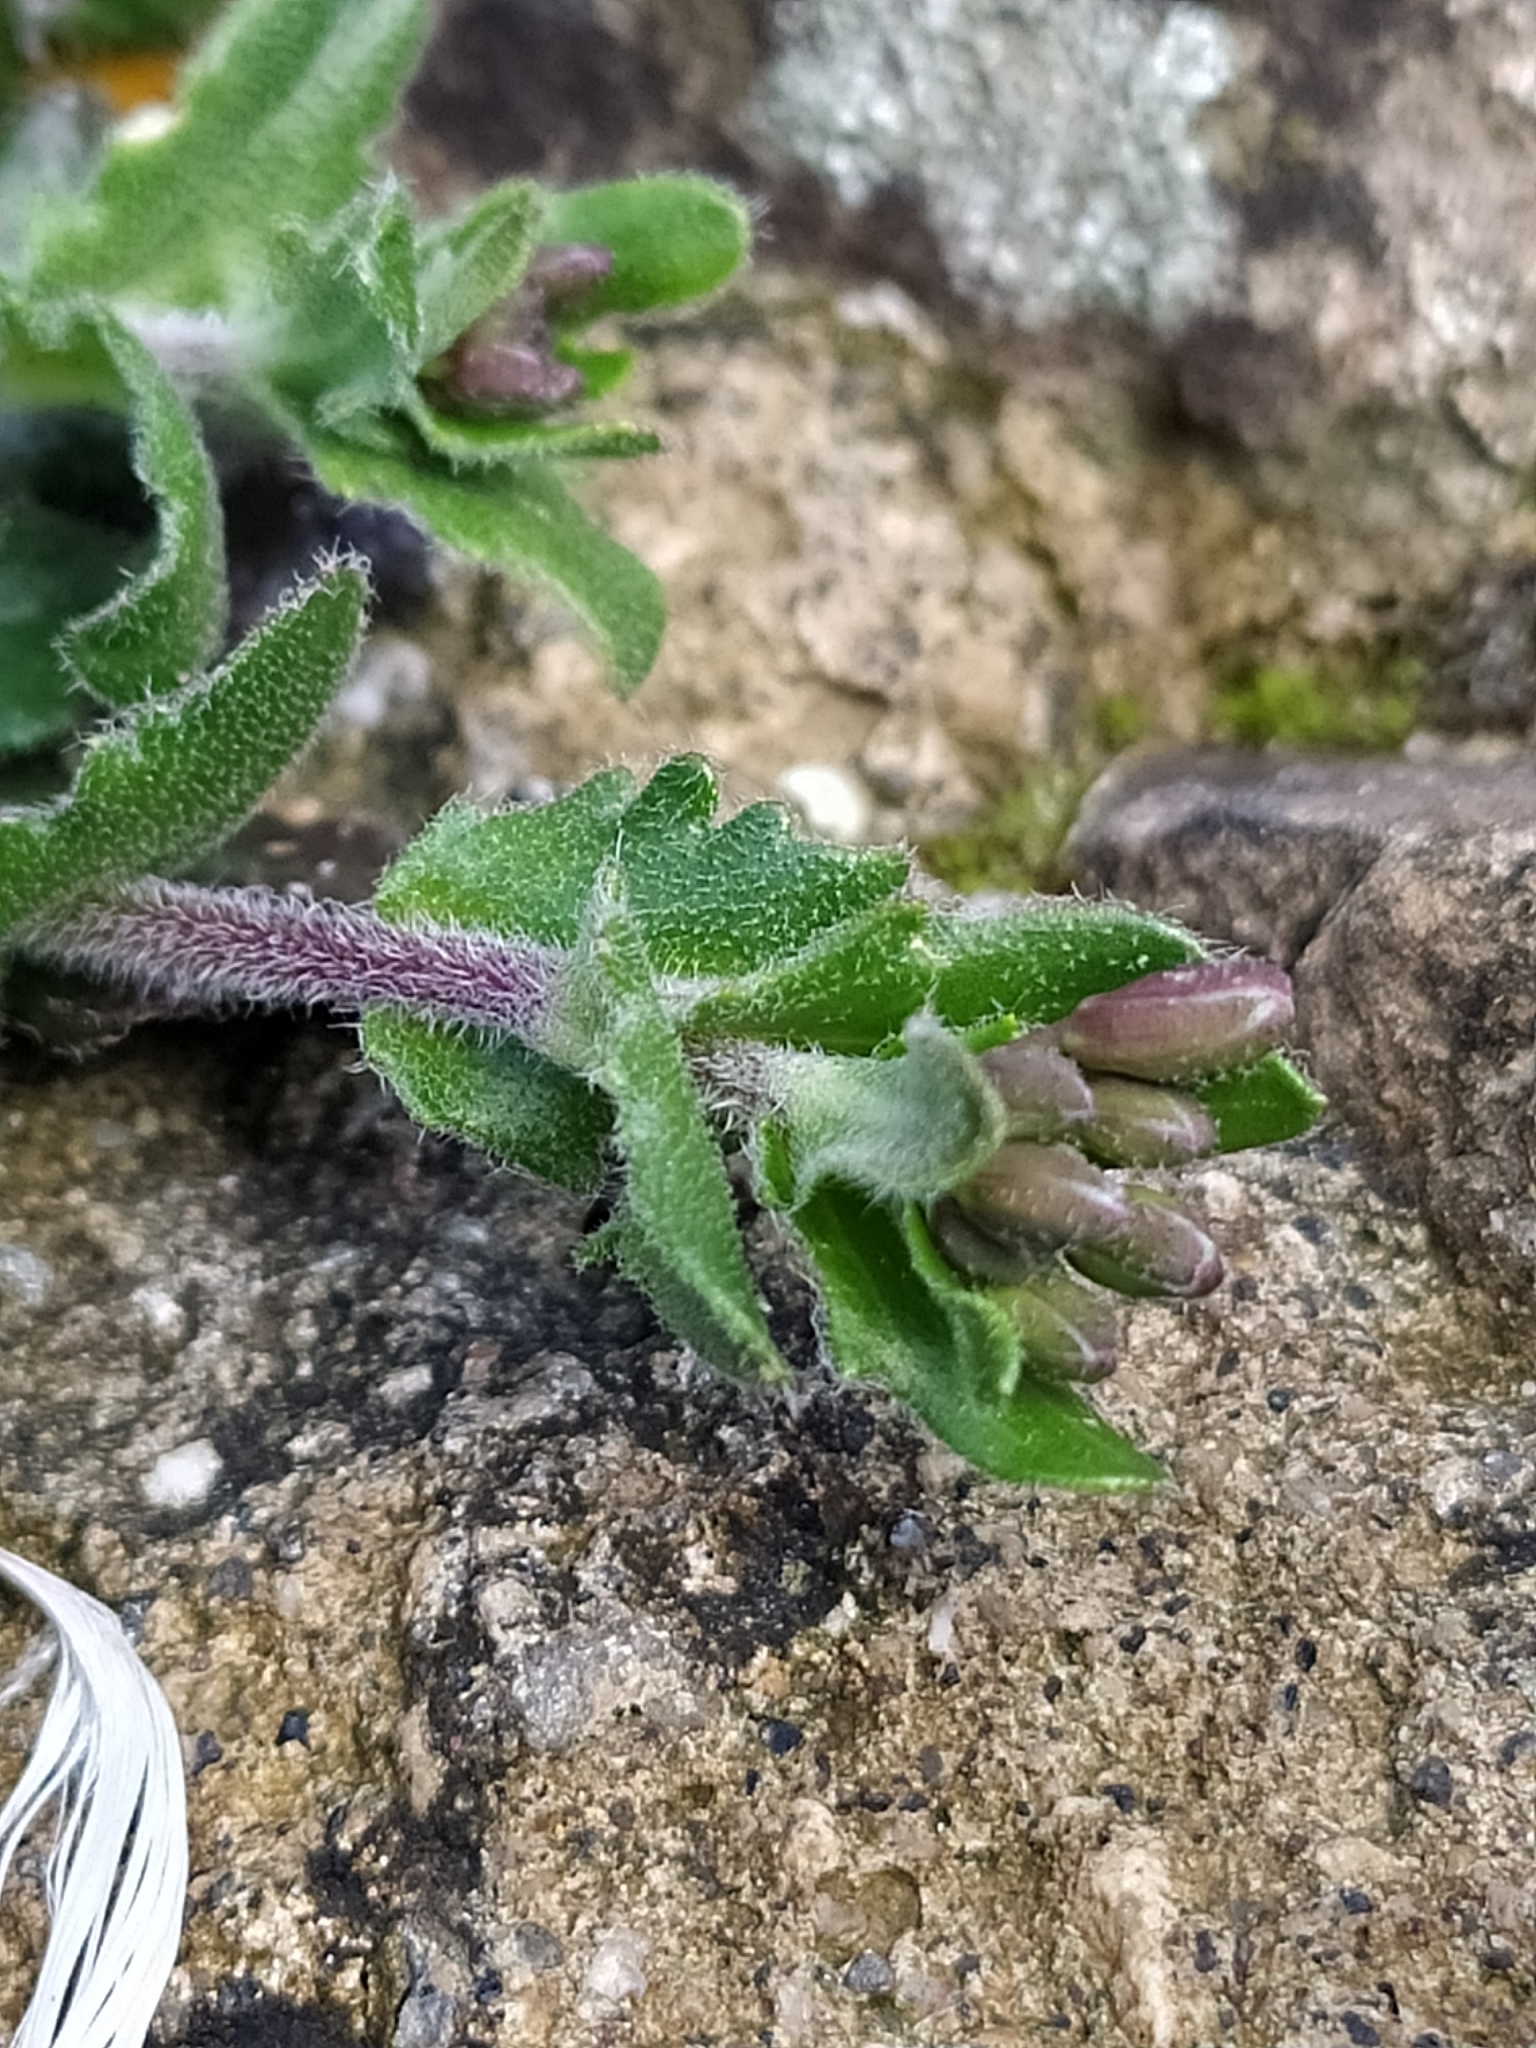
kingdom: Plantae
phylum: Tracheophyta
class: Magnoliopsida
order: Brassicales
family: Brassicaceae
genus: Arabis
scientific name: Arabis collina
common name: Rosy cress
